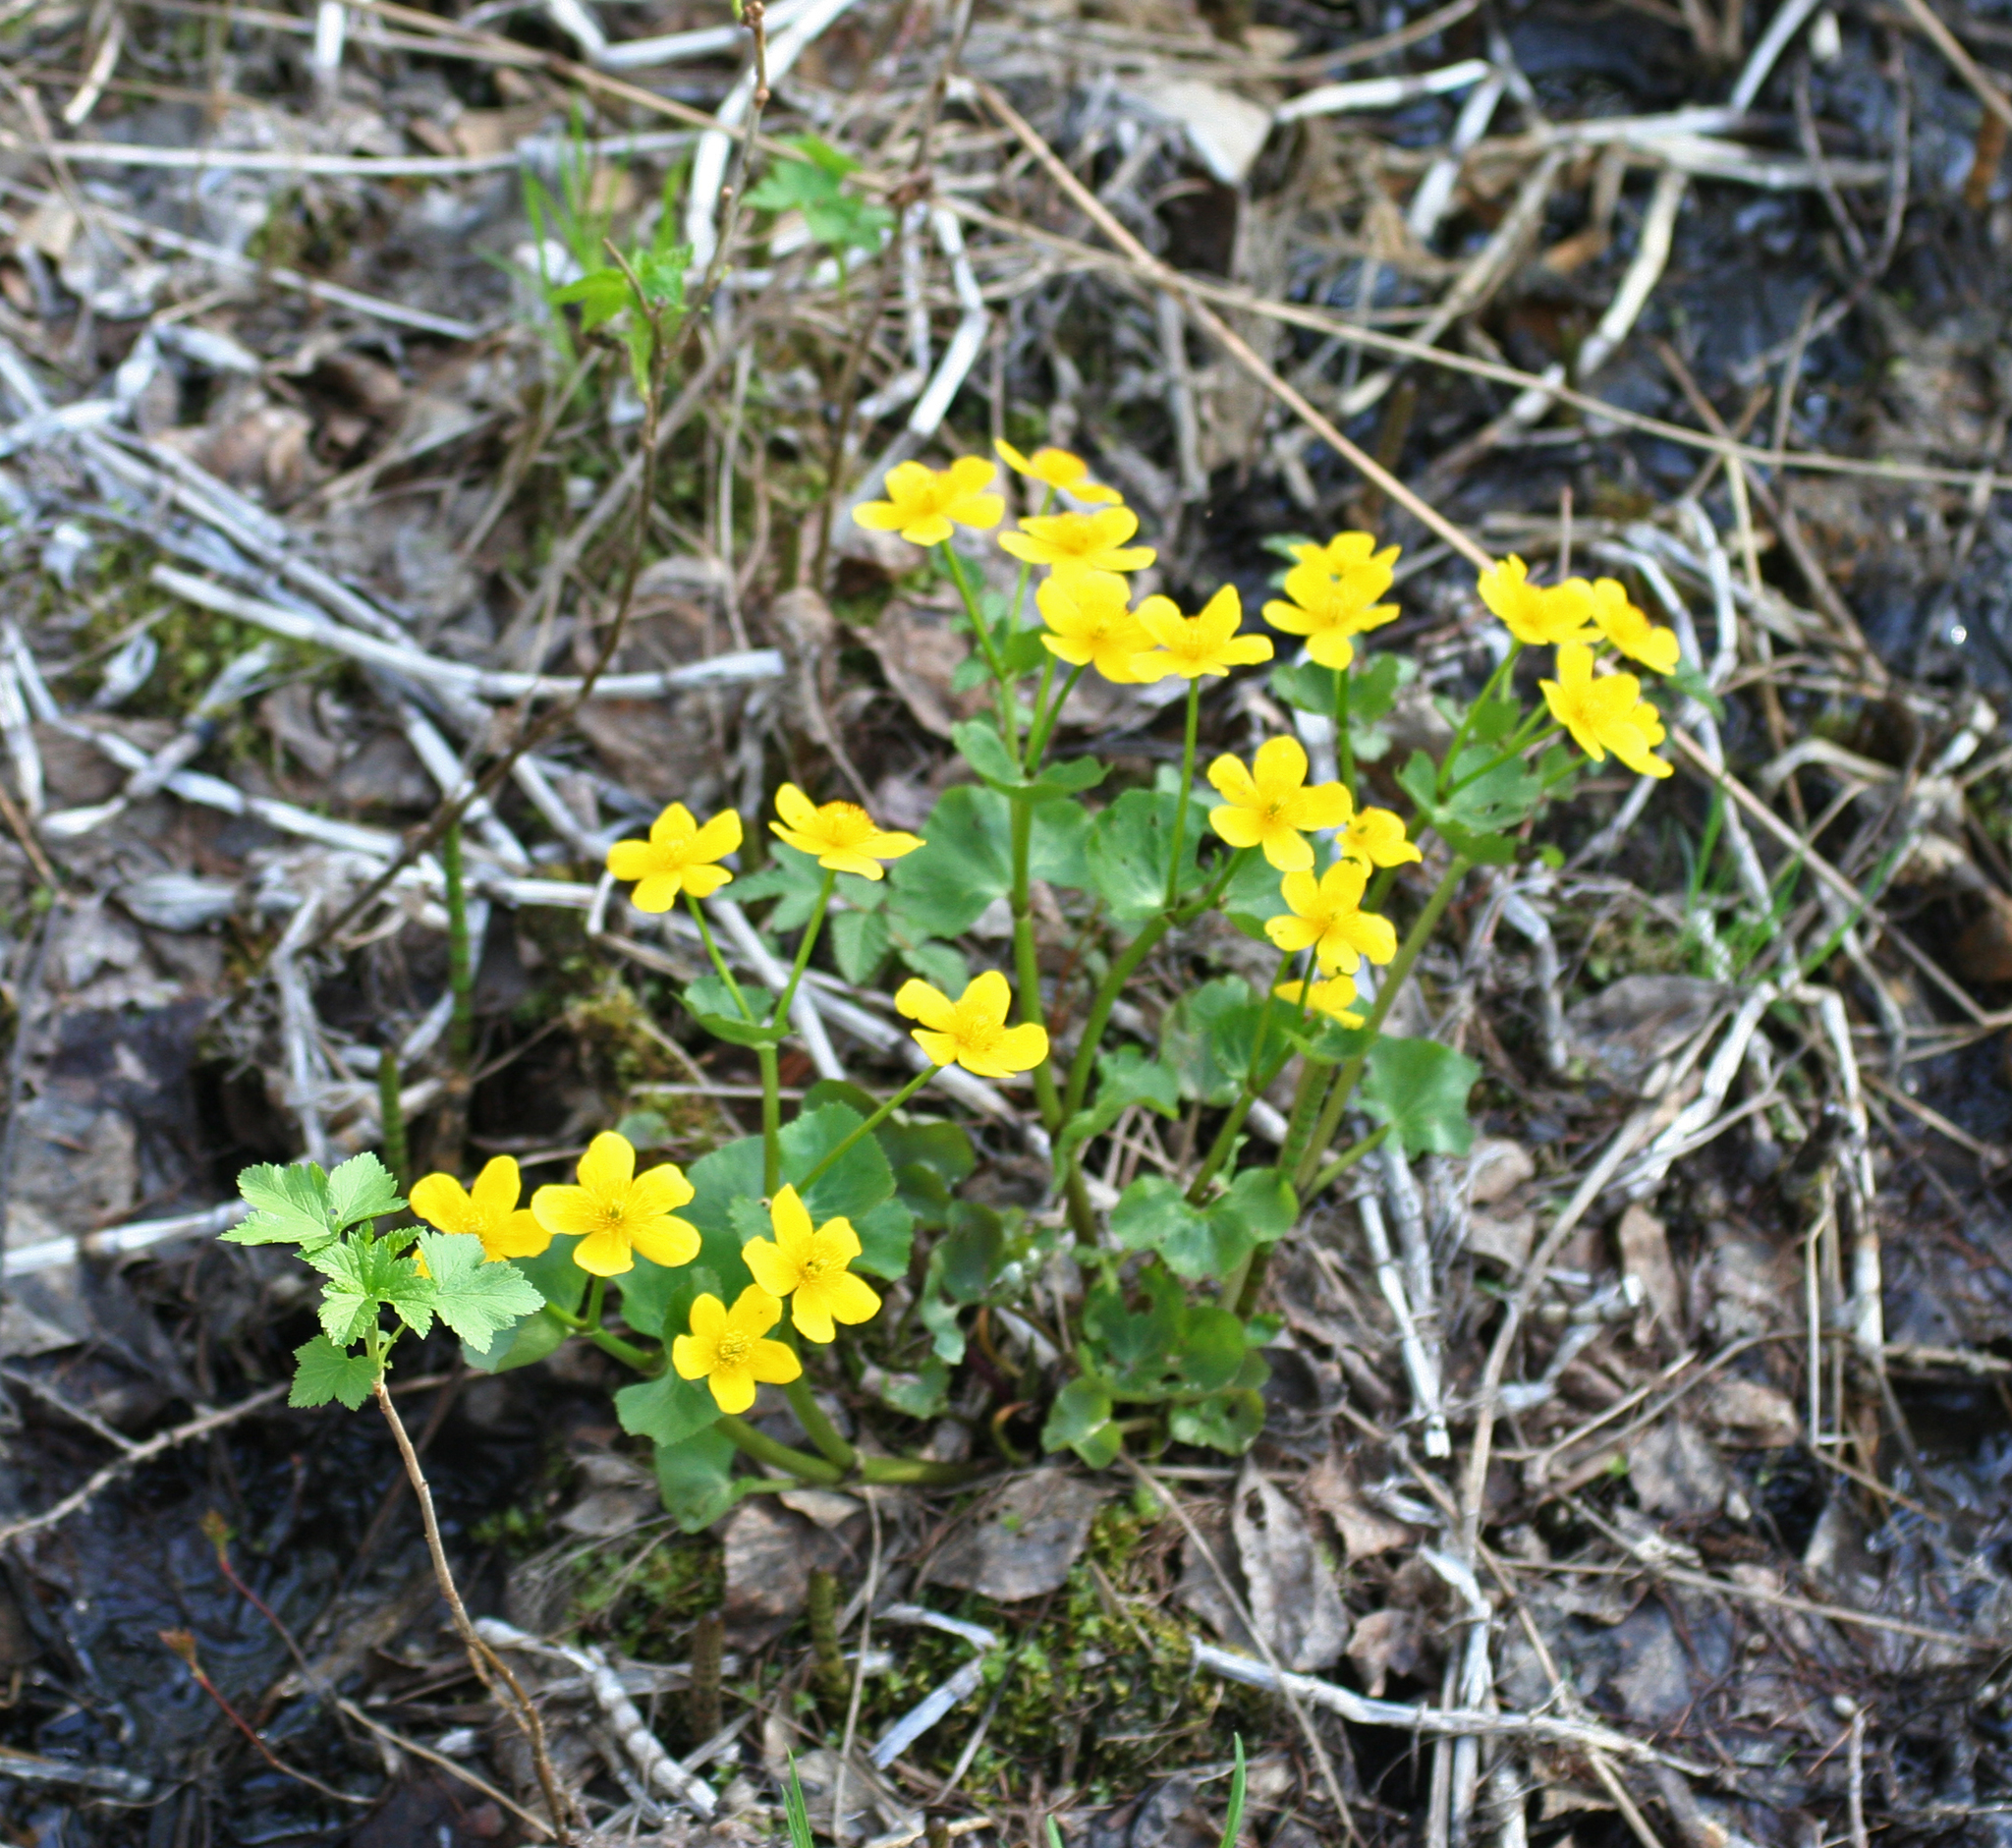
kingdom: Plantae
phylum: Tracheophyta
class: Magnoliopsida
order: Ranunculales
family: Ranunculaceae
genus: Caltha
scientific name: Caltha palustris
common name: Marsh marigold
